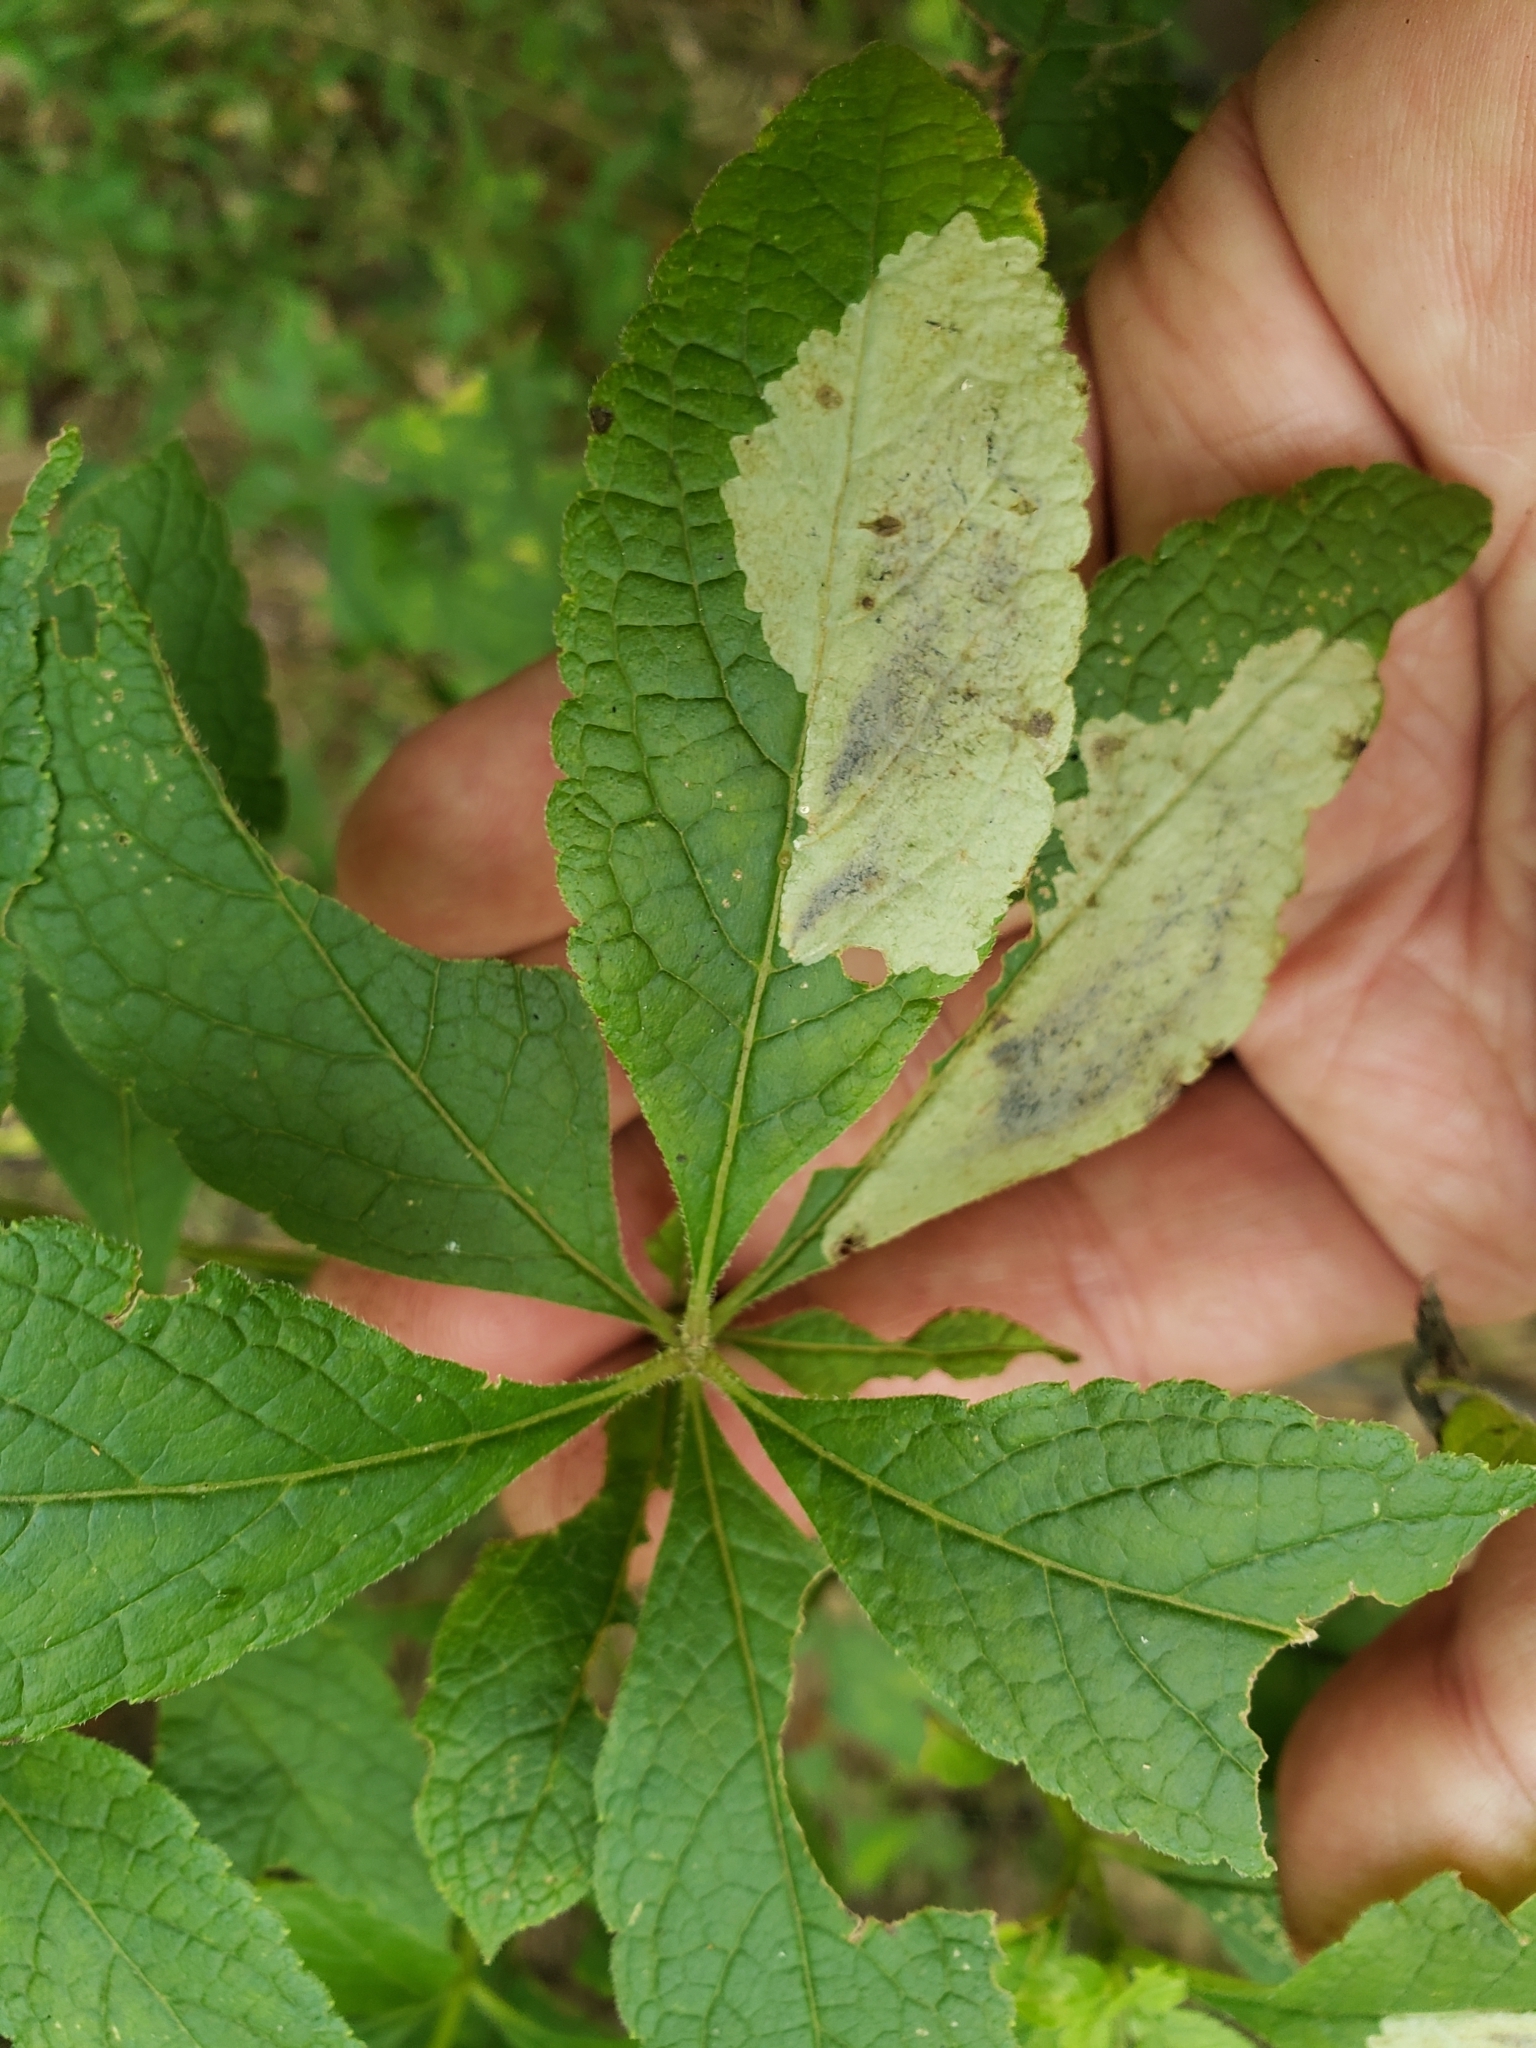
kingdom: Animalia
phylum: Arthropoda
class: Insecta
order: Diptera
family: Agromyzidae
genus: Calycomyza
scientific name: Calycomyza flavinotum
